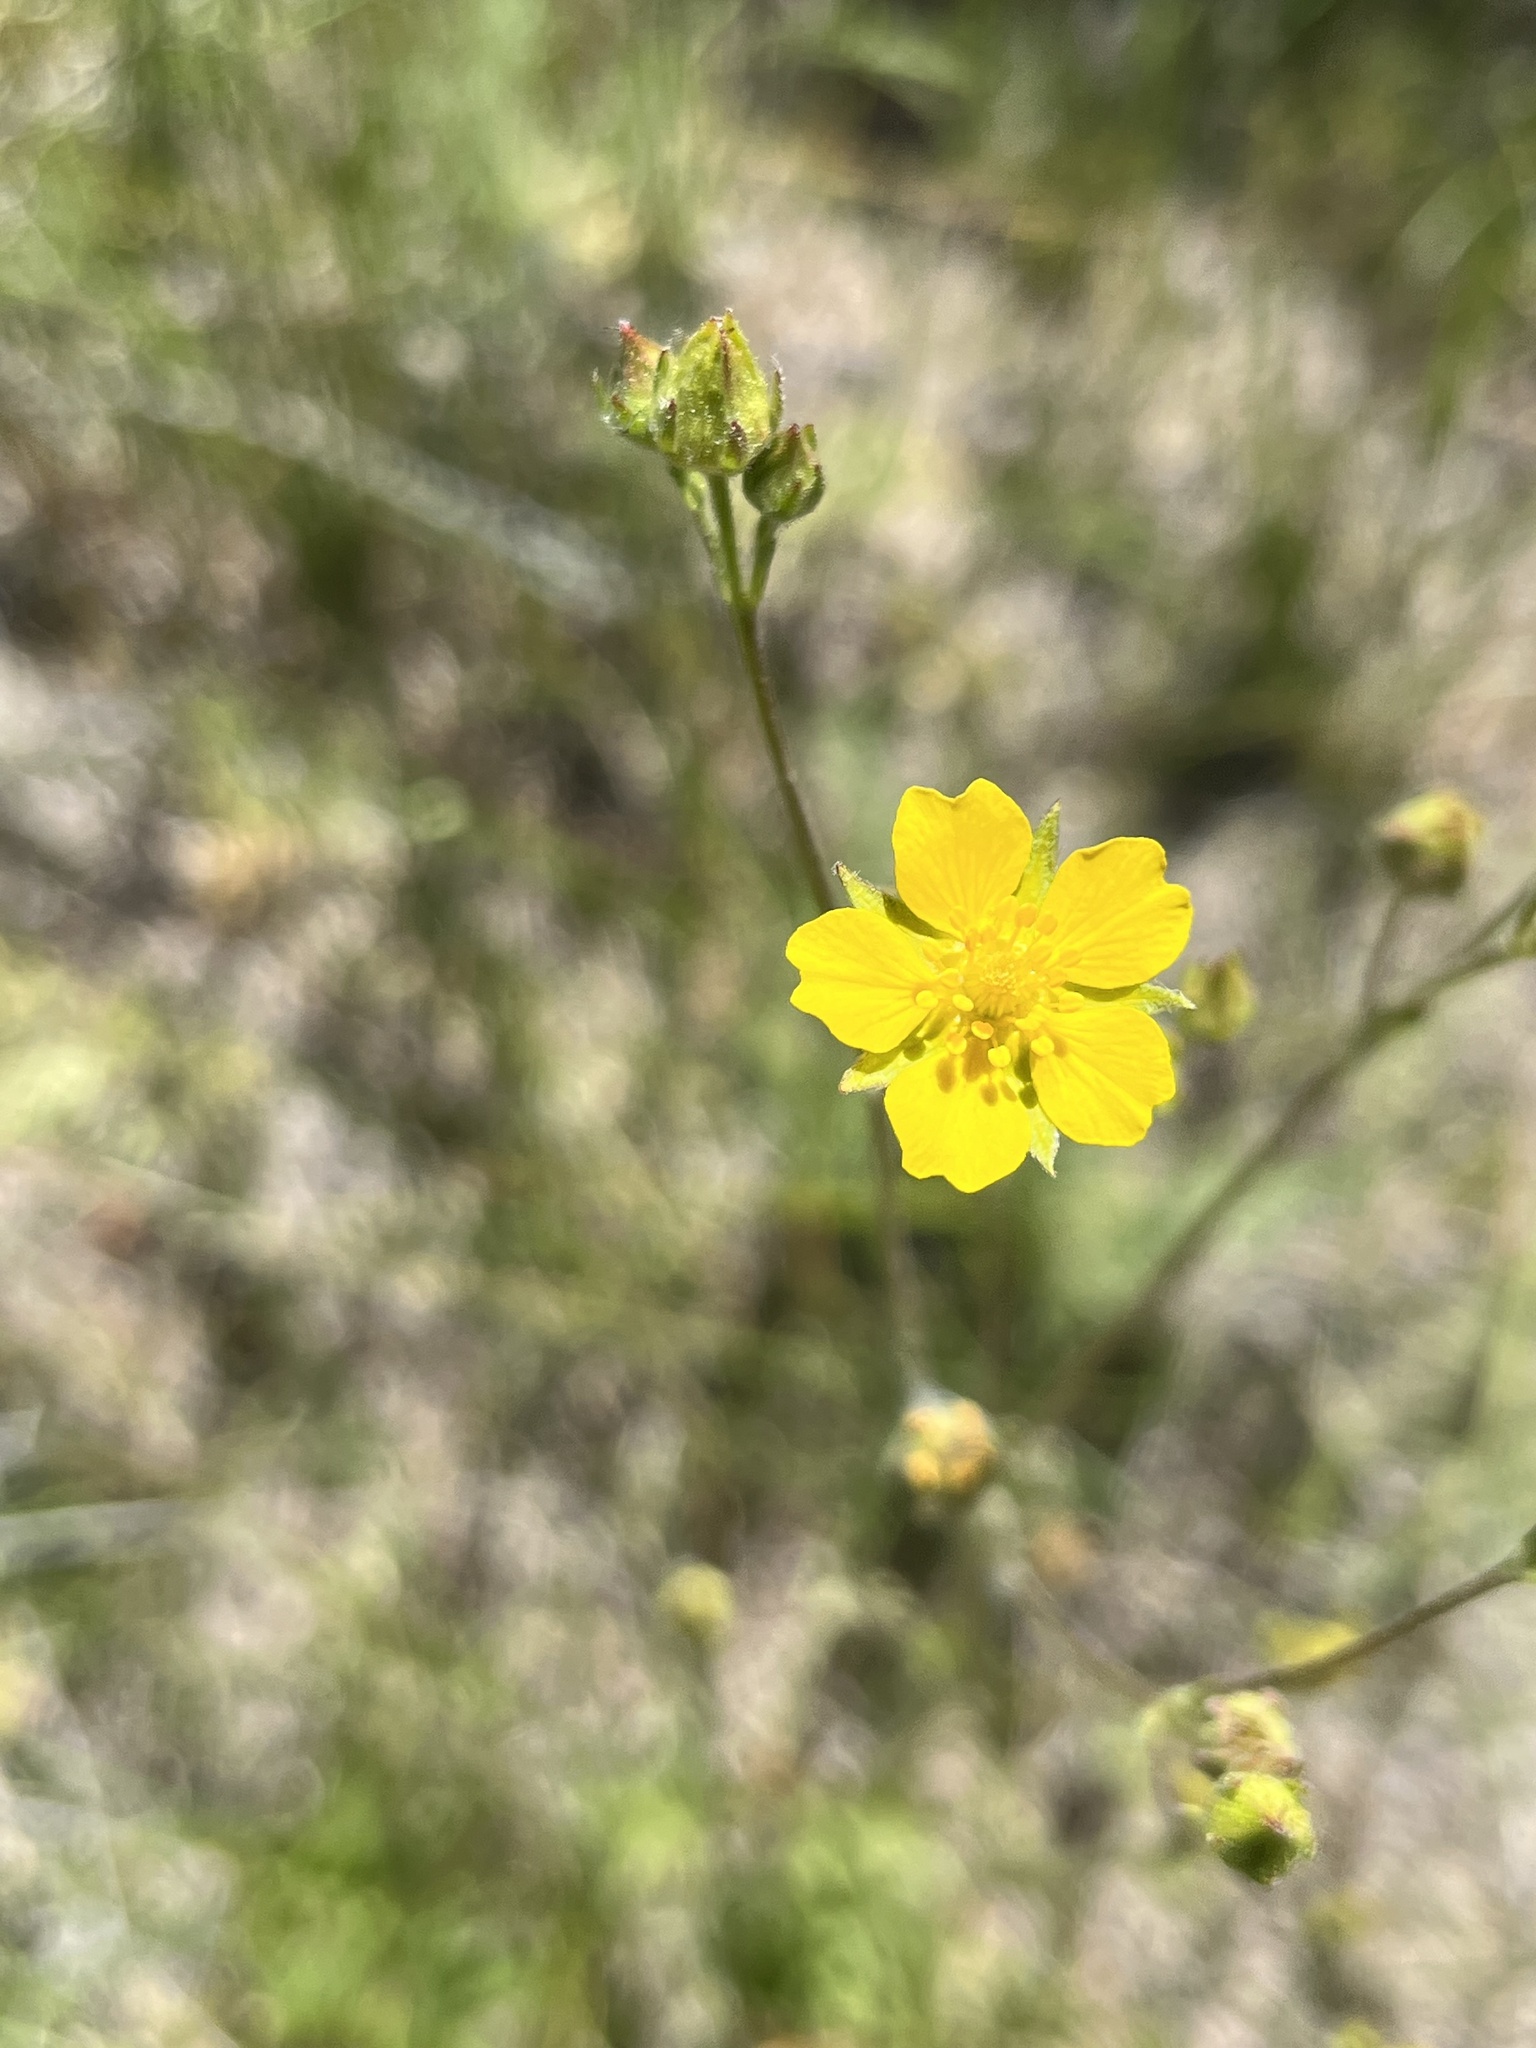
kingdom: Plantae
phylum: Tracheophyta
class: Magnoliopsida
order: Rosales
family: Rosaceae
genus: Potentilla
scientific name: Potentilla gracilis
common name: Graceful cinquefoil
